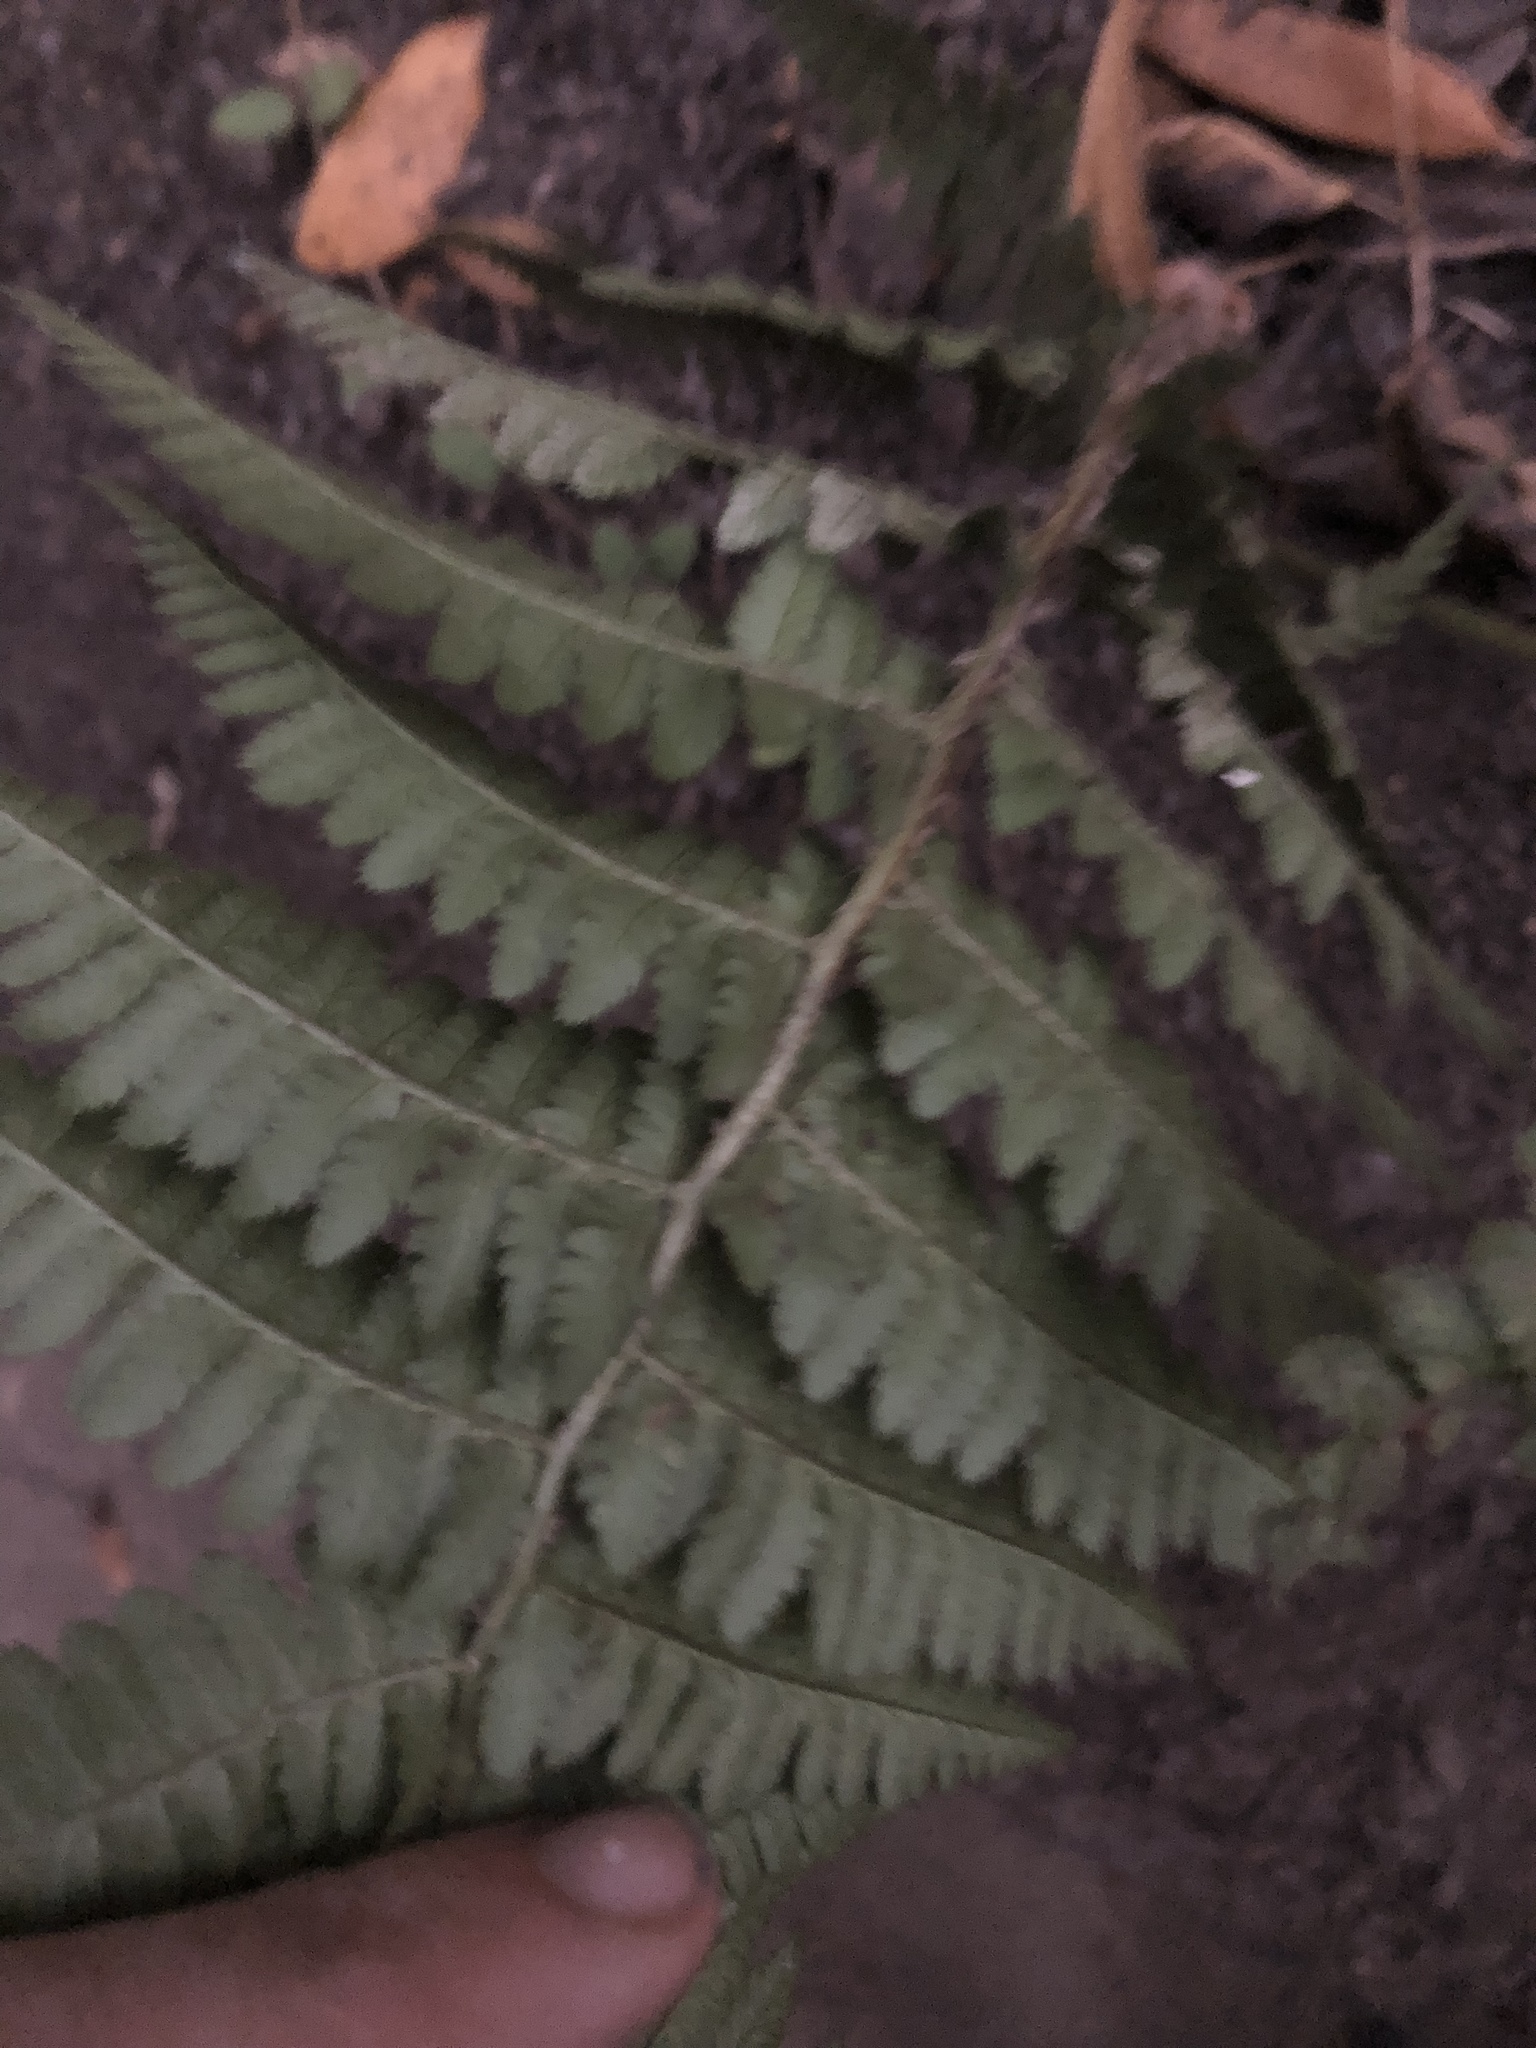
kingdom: Plantae
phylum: Tracheophyta
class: Polypodiopsida
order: Polypodiales
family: Dryopteridaceae
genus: Dryopteris
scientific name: Dryopteris arguta
